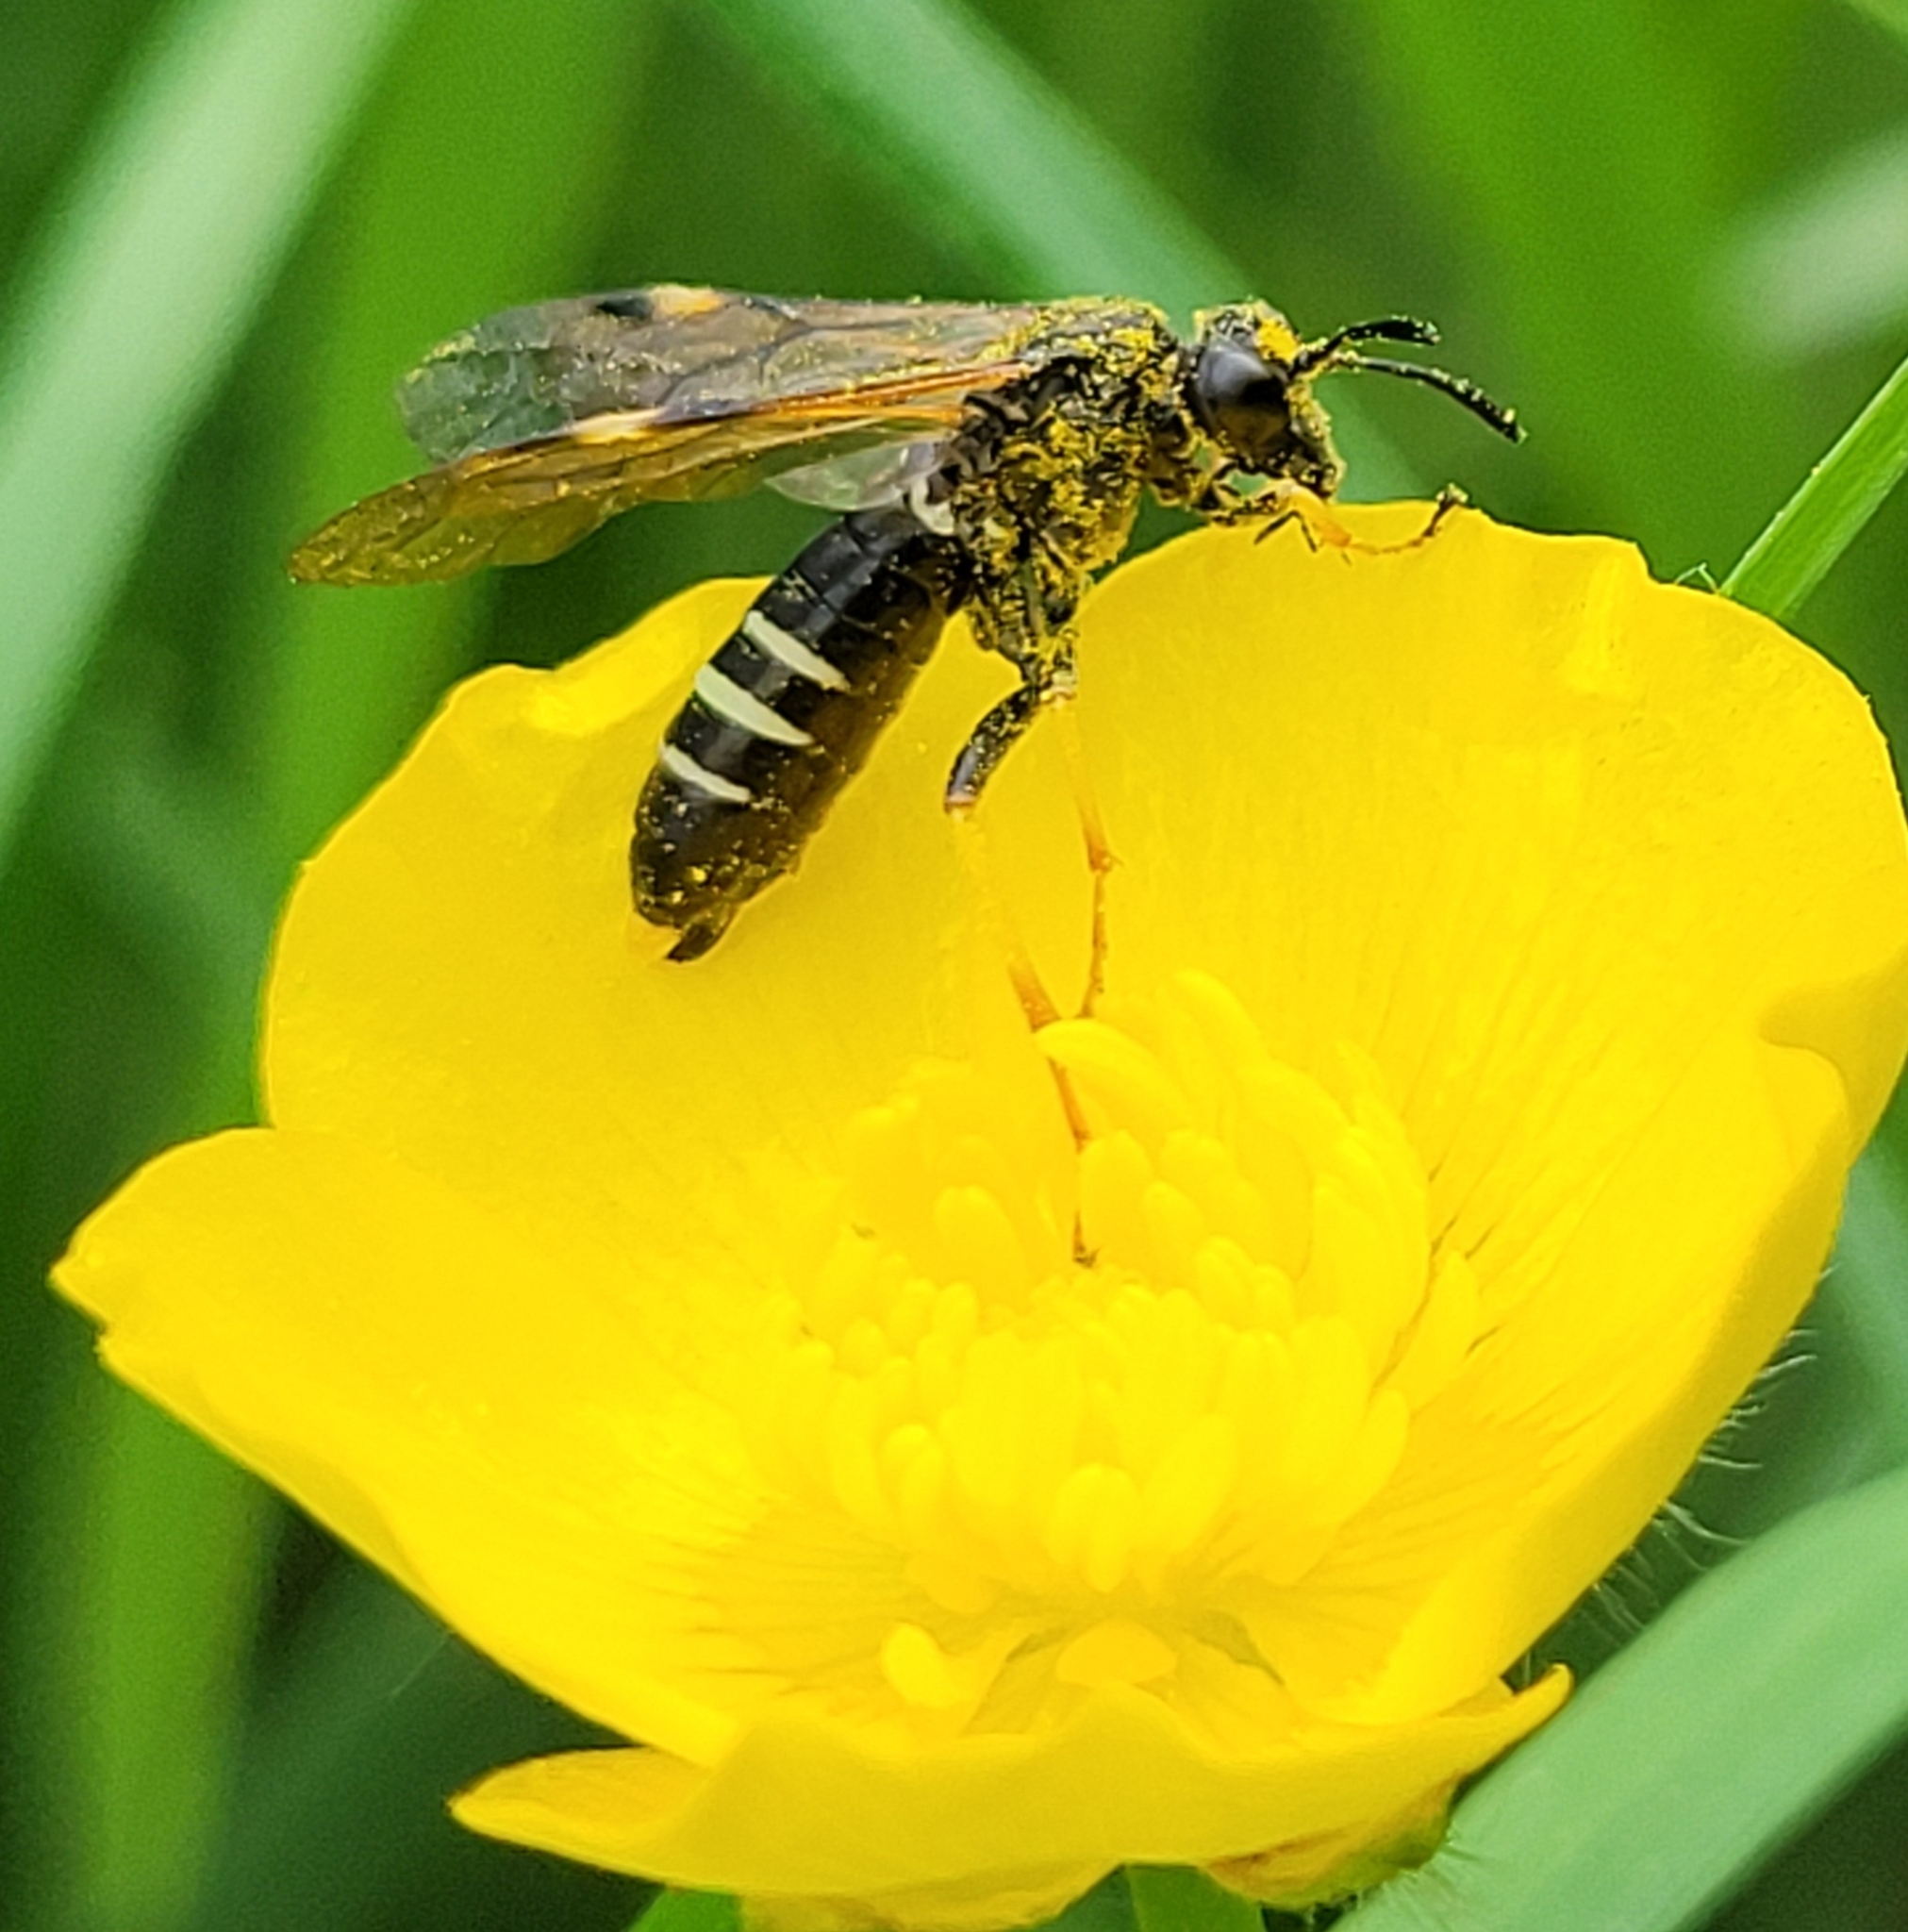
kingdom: Animalia
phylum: Arthropoda
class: Insecta
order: Hymenoptera
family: Tenthredinidae
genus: Tenthredo
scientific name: Tenthredo koehleri
